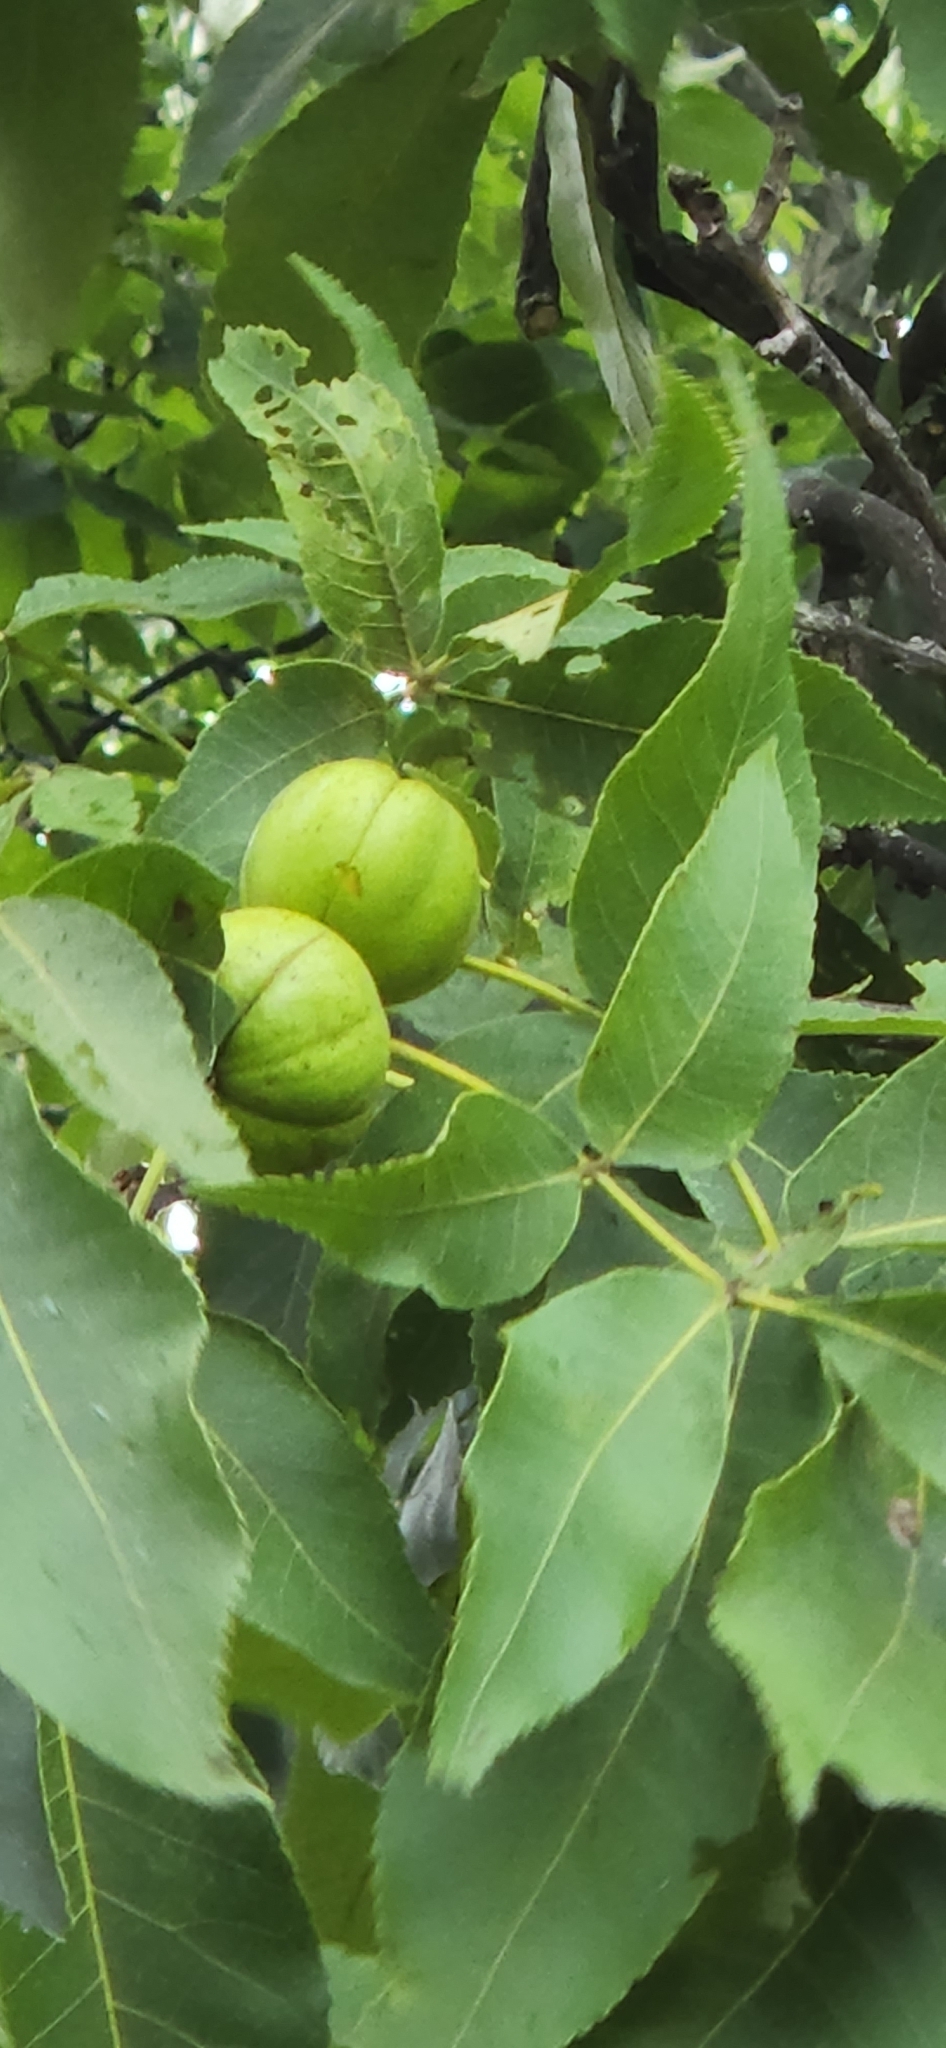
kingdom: Plantae
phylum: Tracheophyta
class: Magnoliopsida
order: Fagales
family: Juglandaceae
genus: Juglans
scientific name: Juglans nigra
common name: Black walnut
